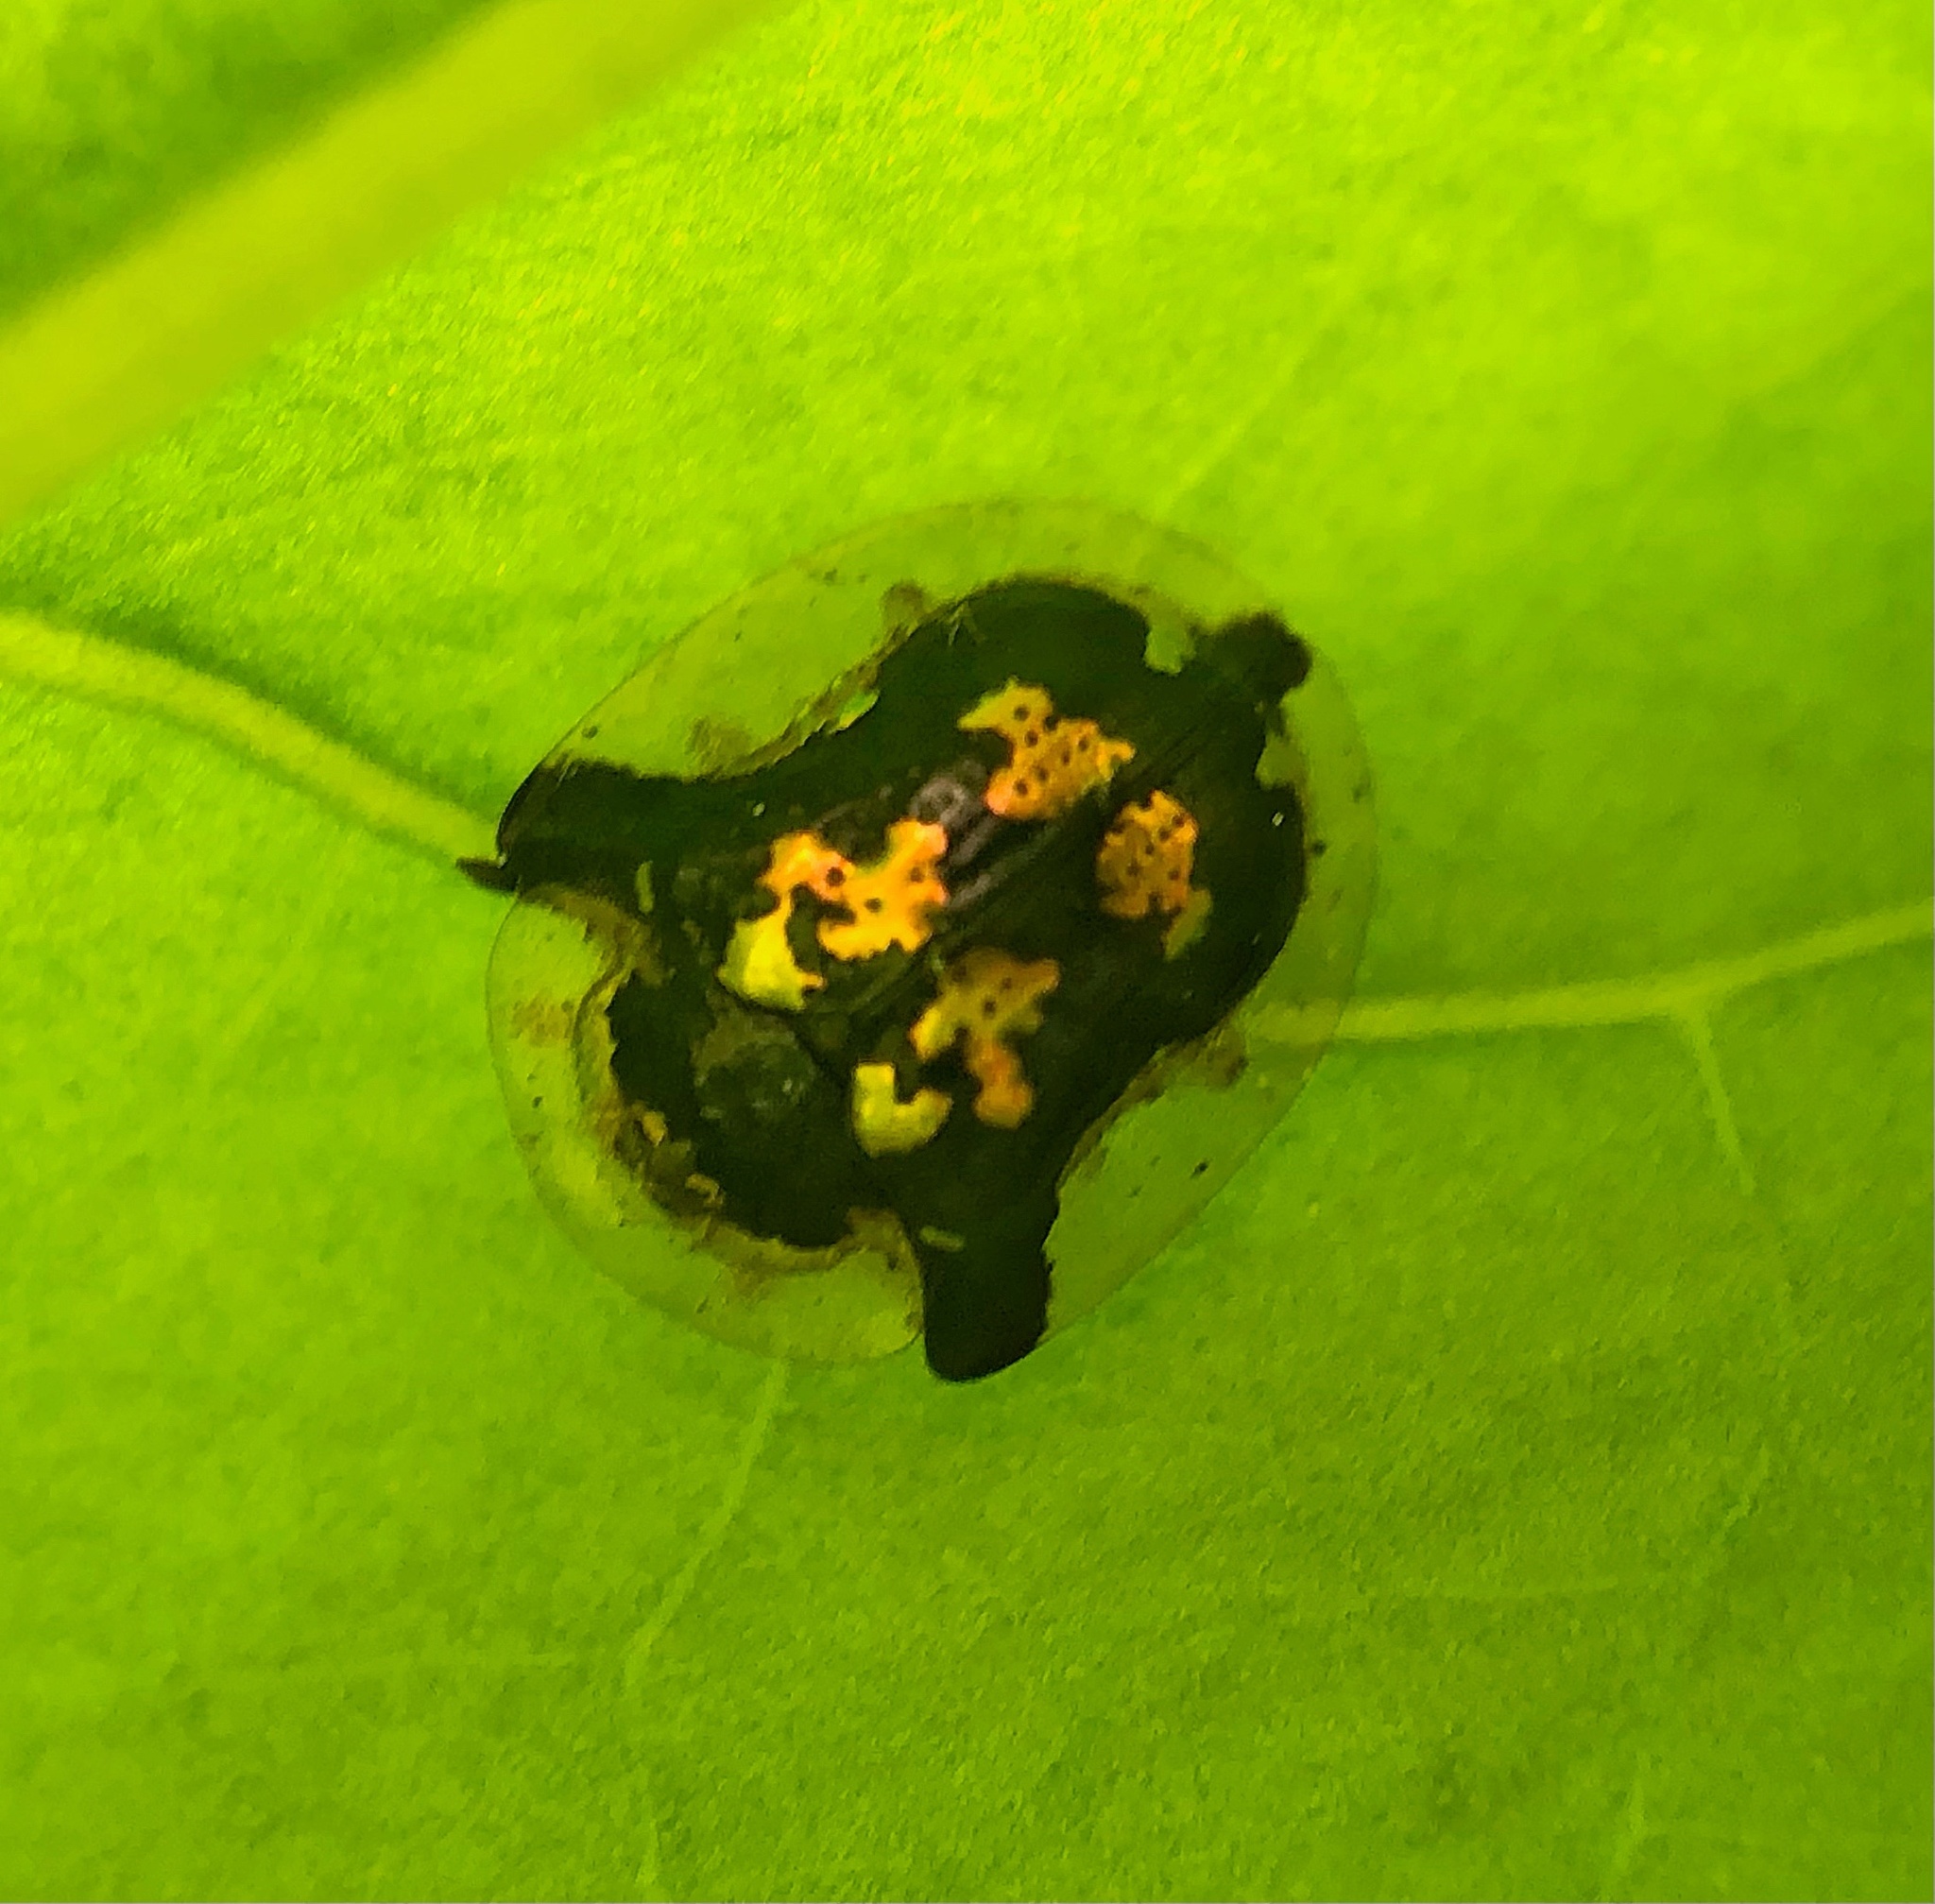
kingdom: Animalia
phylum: Arthropoda
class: Insecta
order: Coleoptera
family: Chrysomelidae
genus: Deloyala
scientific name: Deloyala guttata
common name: Mottled tortoise beetle
